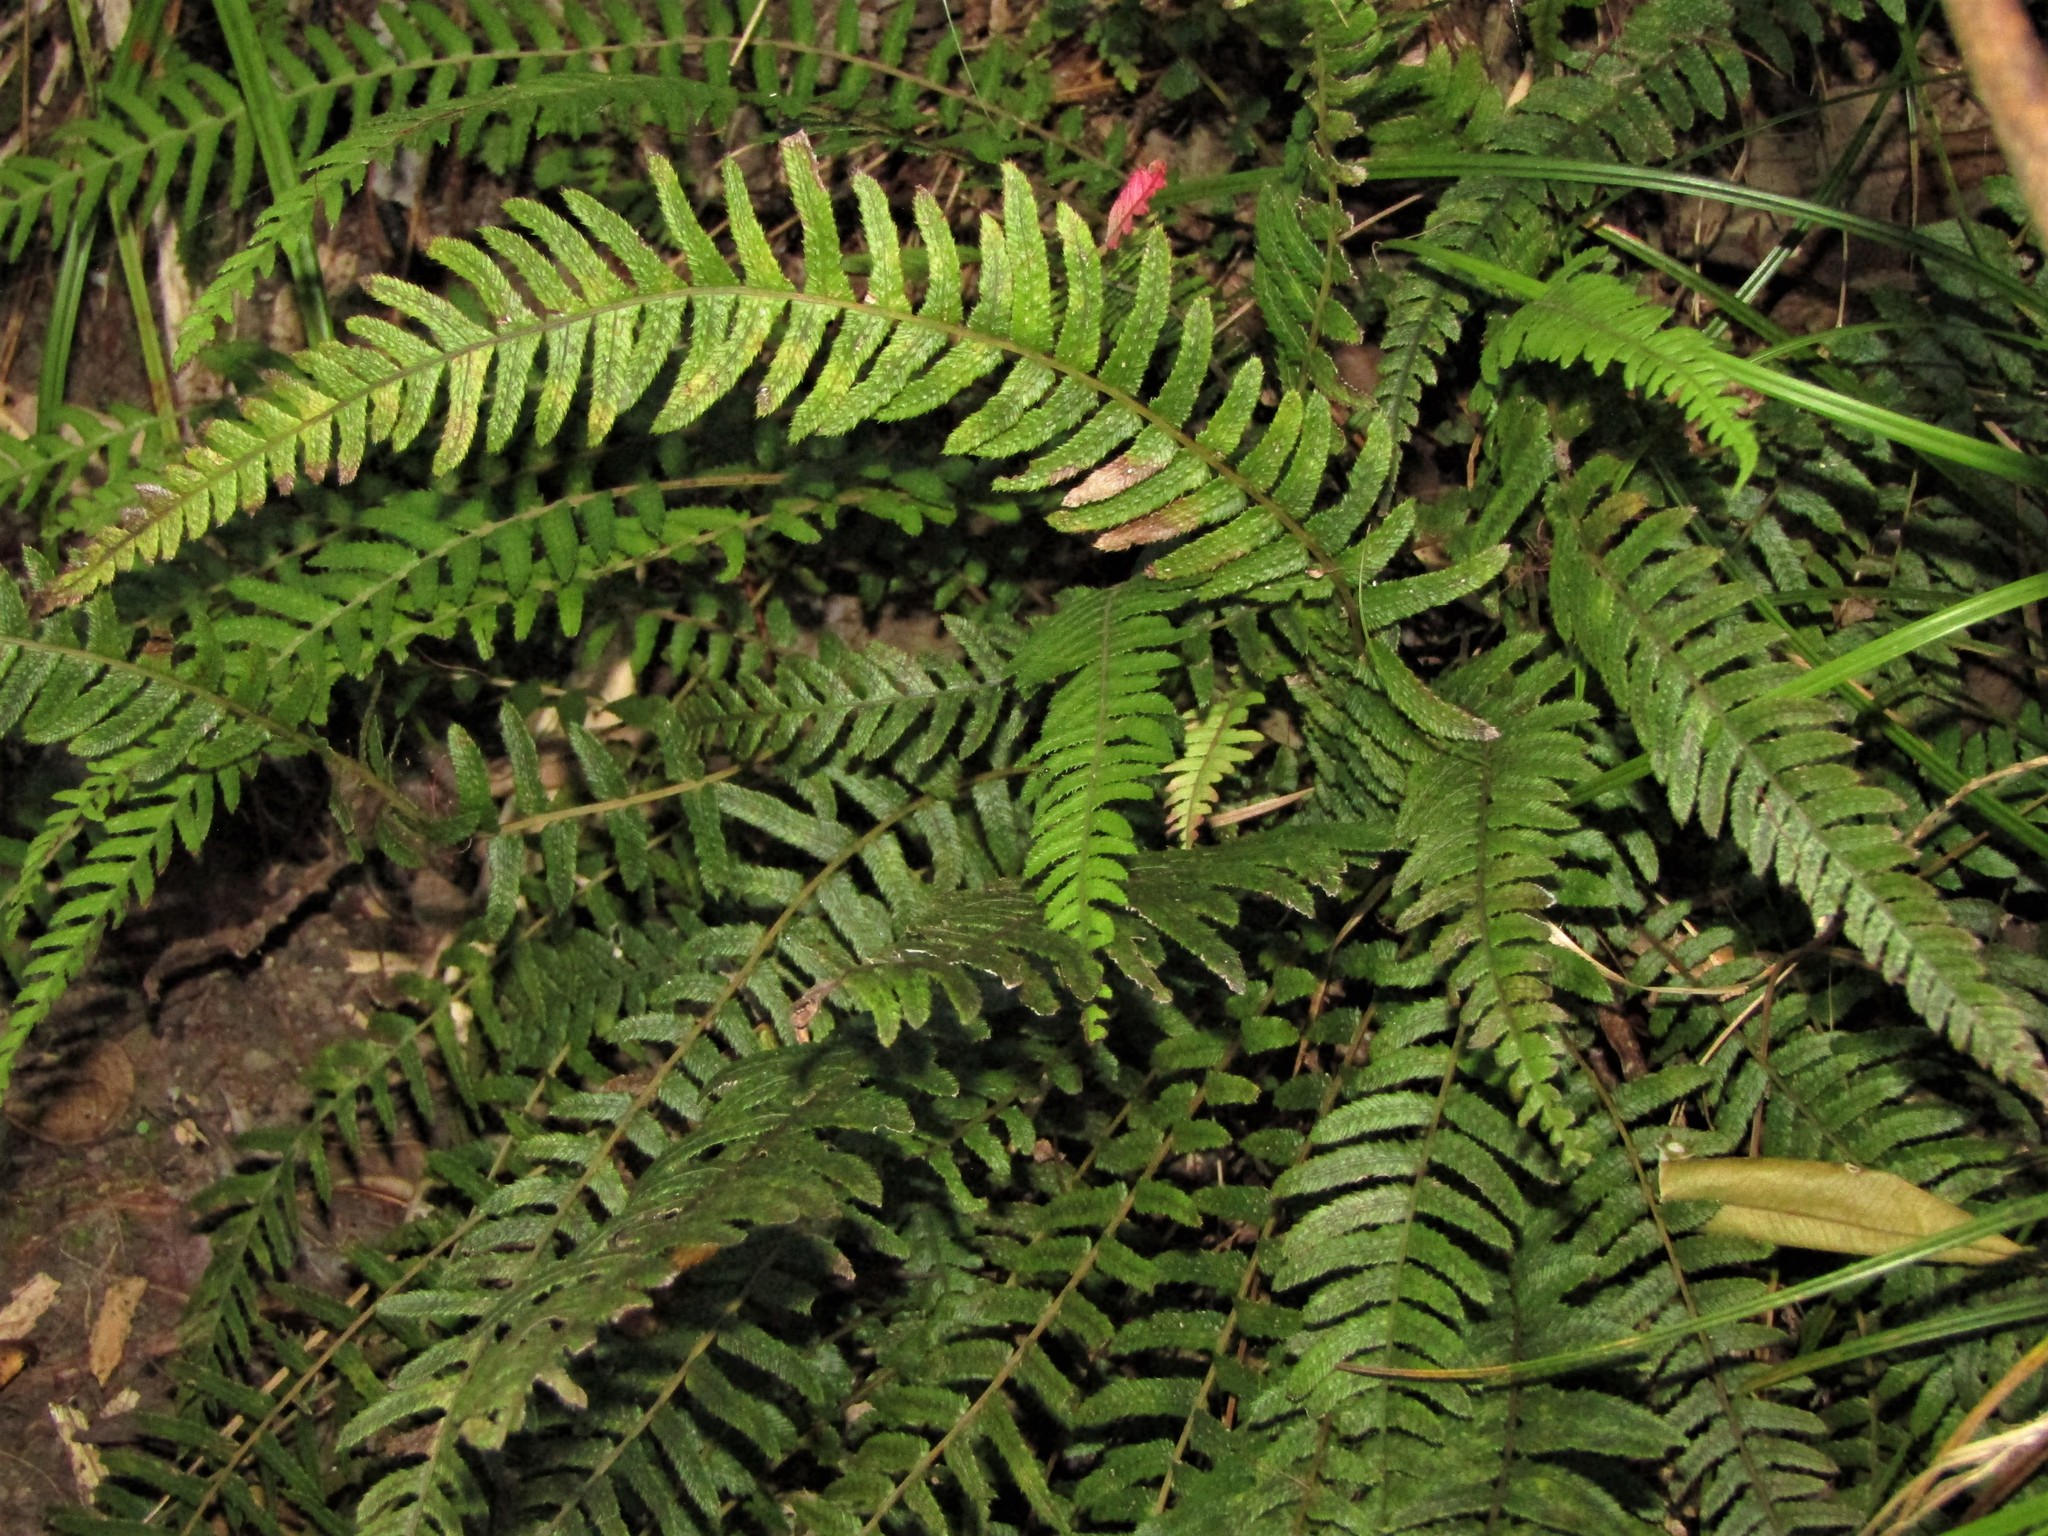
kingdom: Plantae
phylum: Tracheophyta
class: Polypodiopsida
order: Polypodiales
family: Blechnaceae
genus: Doodia
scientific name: Doodia australis
